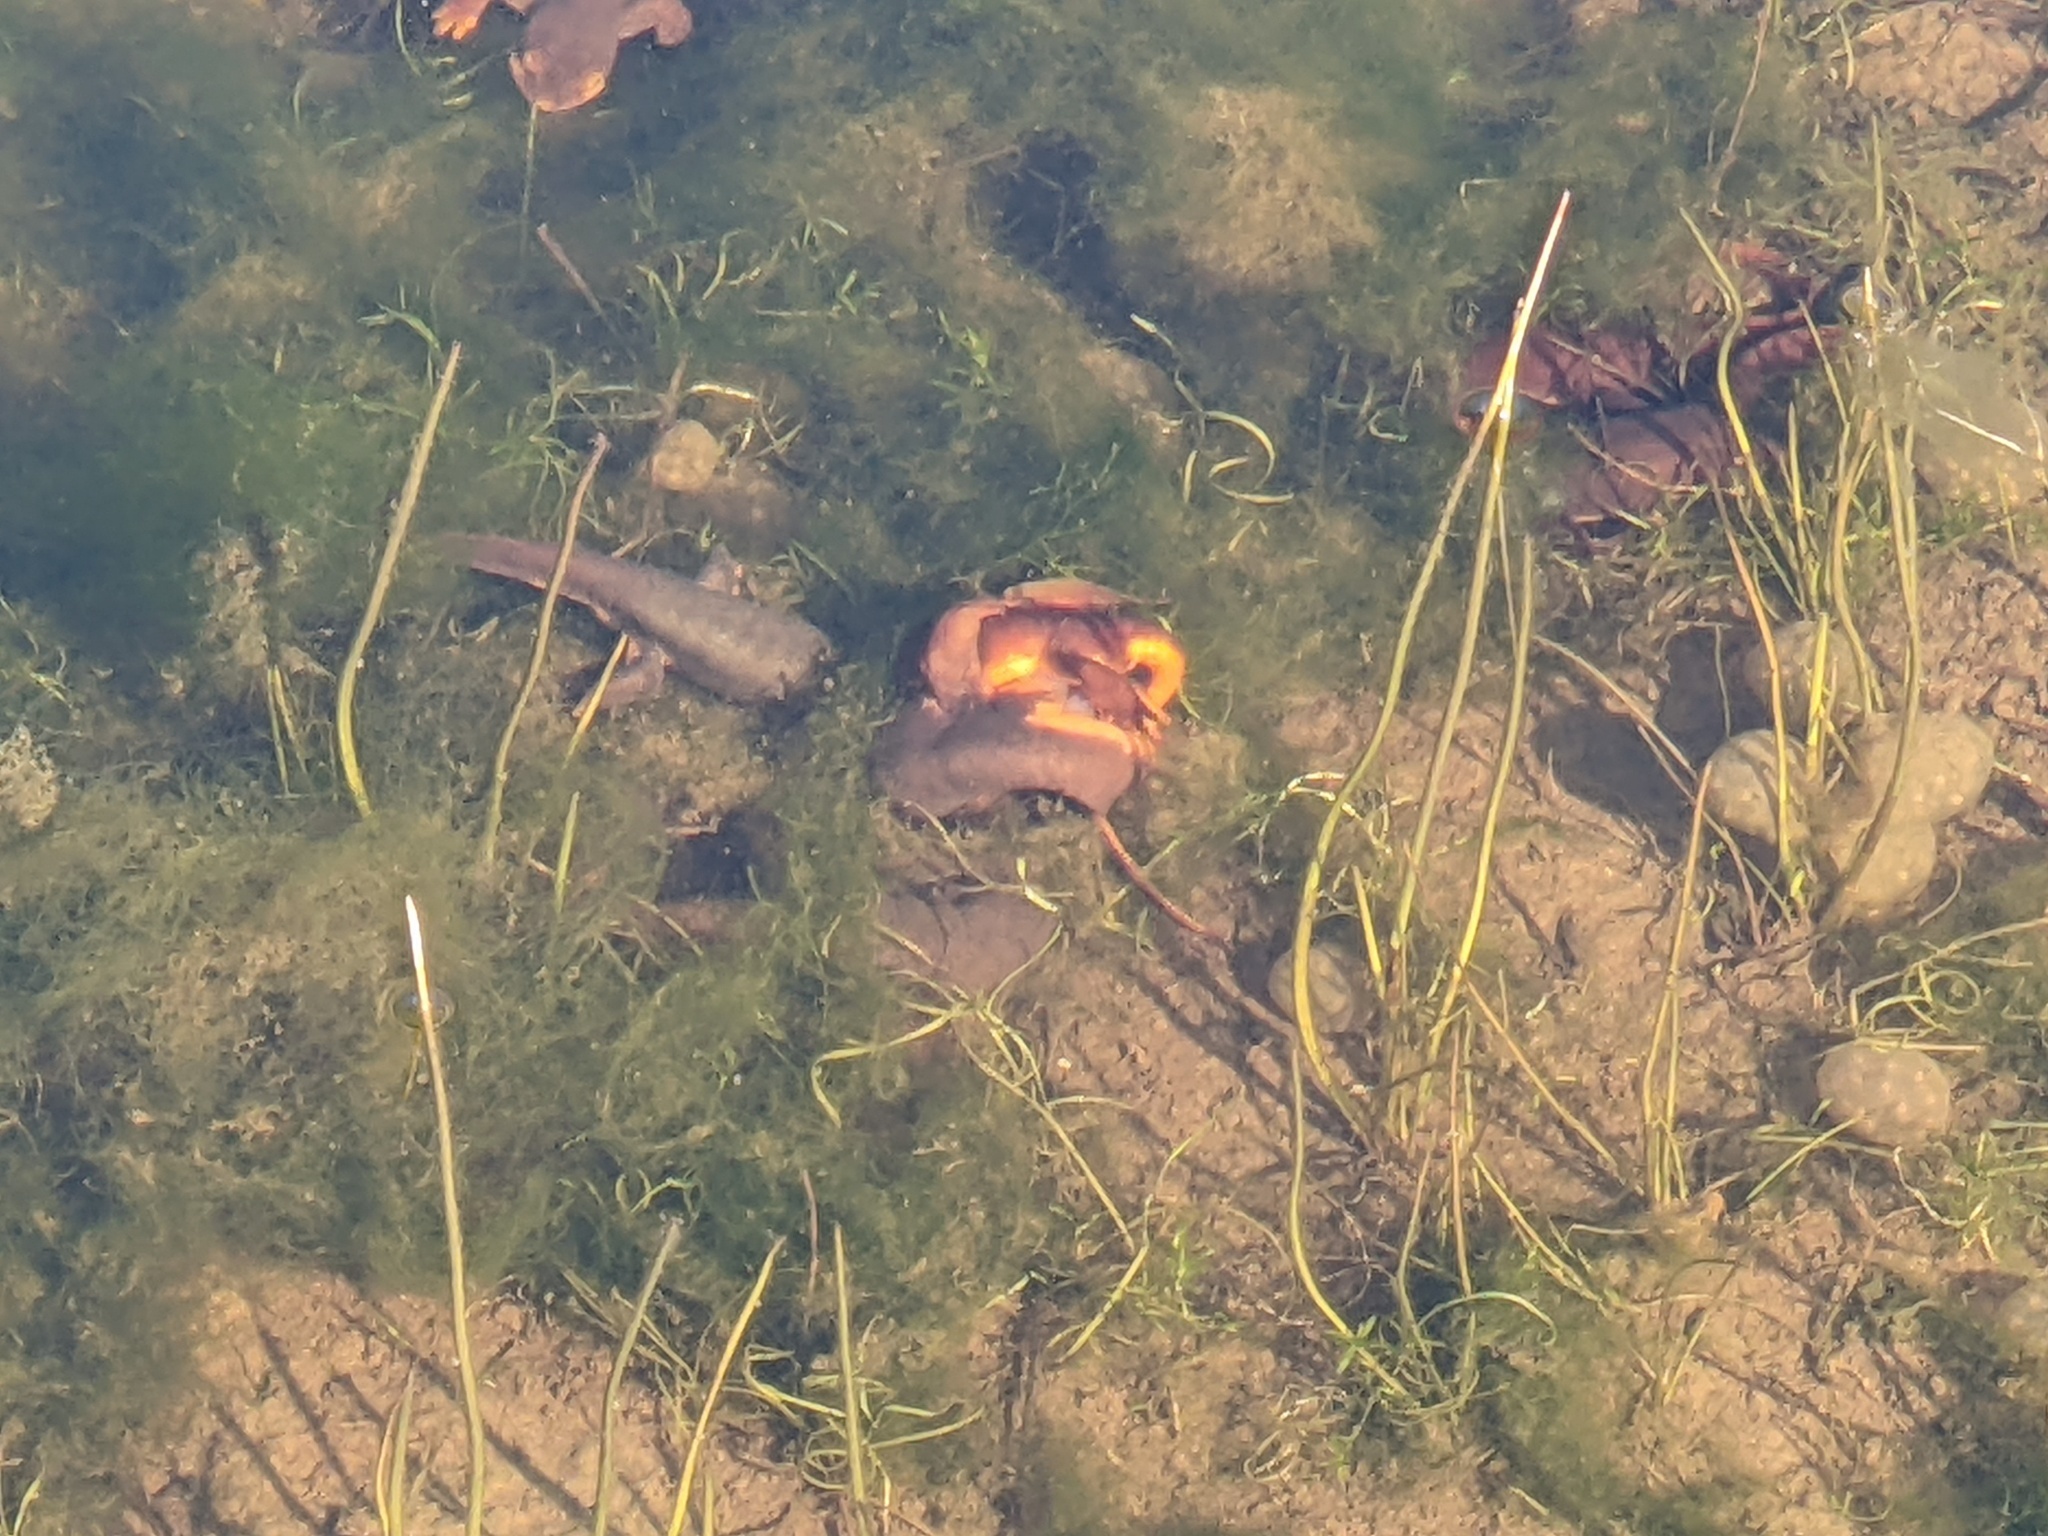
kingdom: Animalia
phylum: Chordata
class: Amphibia
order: Caudata
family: Salamandridae
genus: Taricha
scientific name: Taricha torosa
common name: California newt
